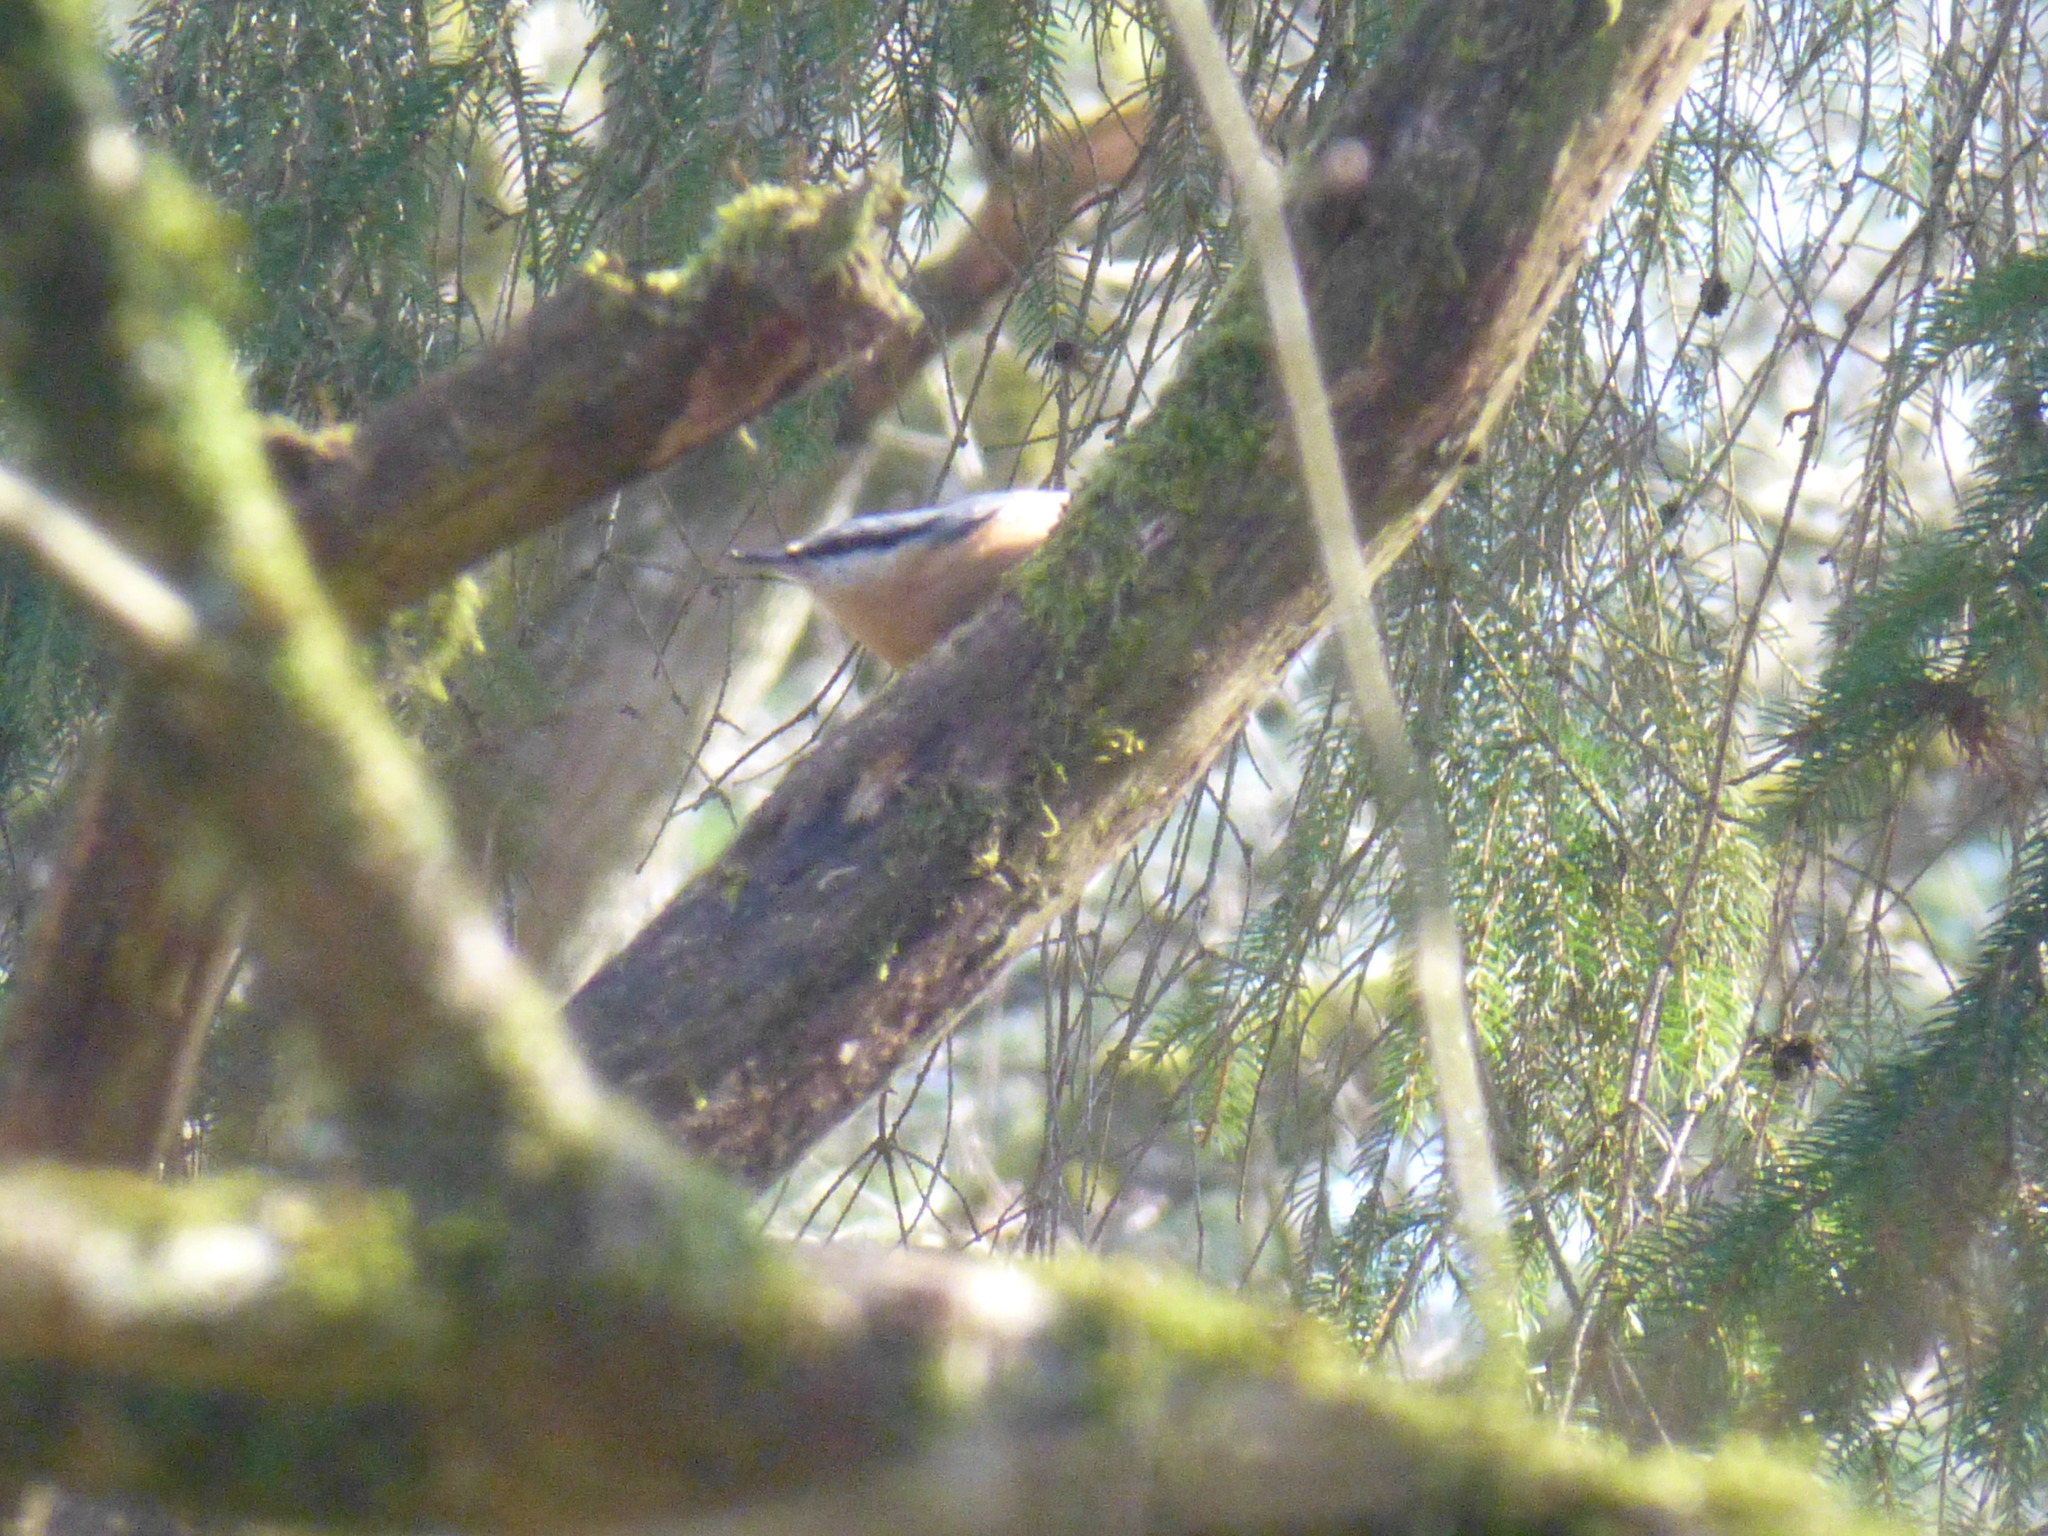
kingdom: Animalia
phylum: Chordata
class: Aves
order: Passeriformes
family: Sittidae
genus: Sitta
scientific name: Sitta europaea
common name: Eurasian nuthatch
